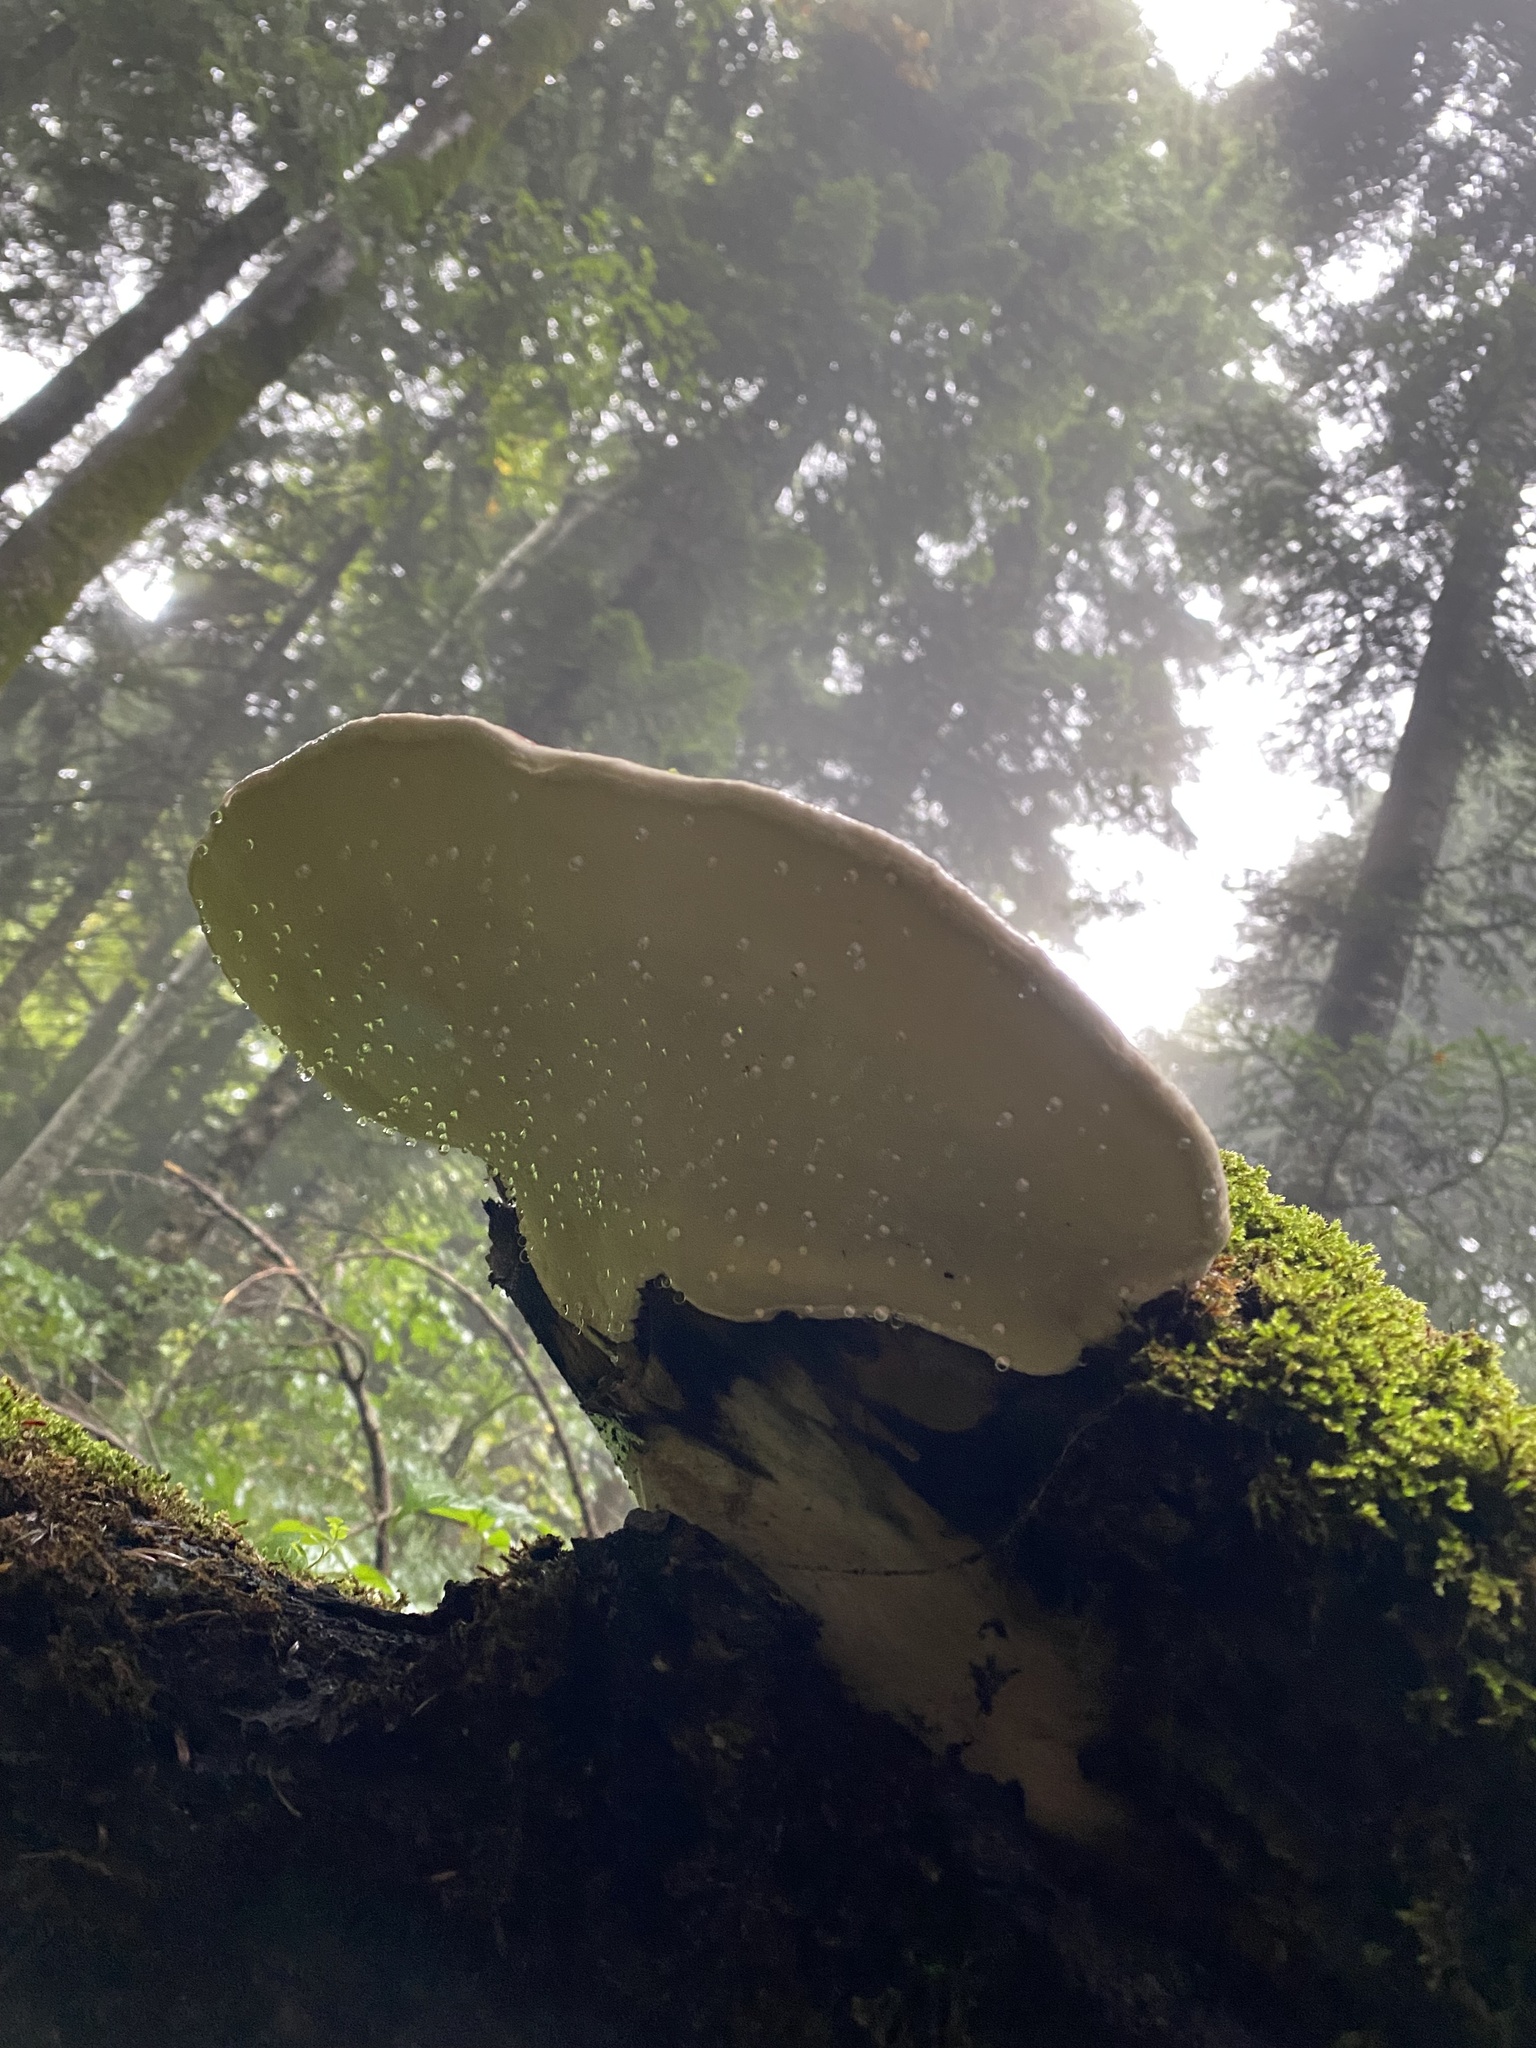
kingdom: Fungi
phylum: Basidiomycota
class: Agaricomycetes
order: Polyporales
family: Fomitopsidaceae
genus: Fomitopsis
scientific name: Fomitopsis pinicola
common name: Red-belted bracket
